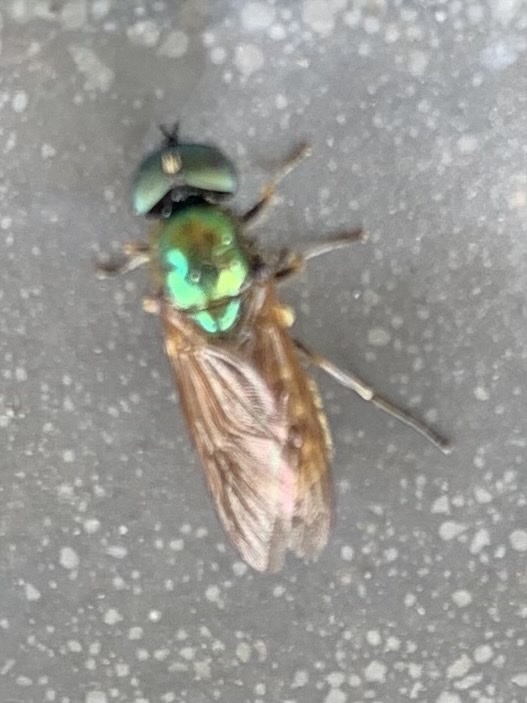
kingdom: Animalia
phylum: Arthropoda
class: Insecta
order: Diptera
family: Stratiomyidae
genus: Chloromyia
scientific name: Chloromyia formosa
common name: Soldier fly
